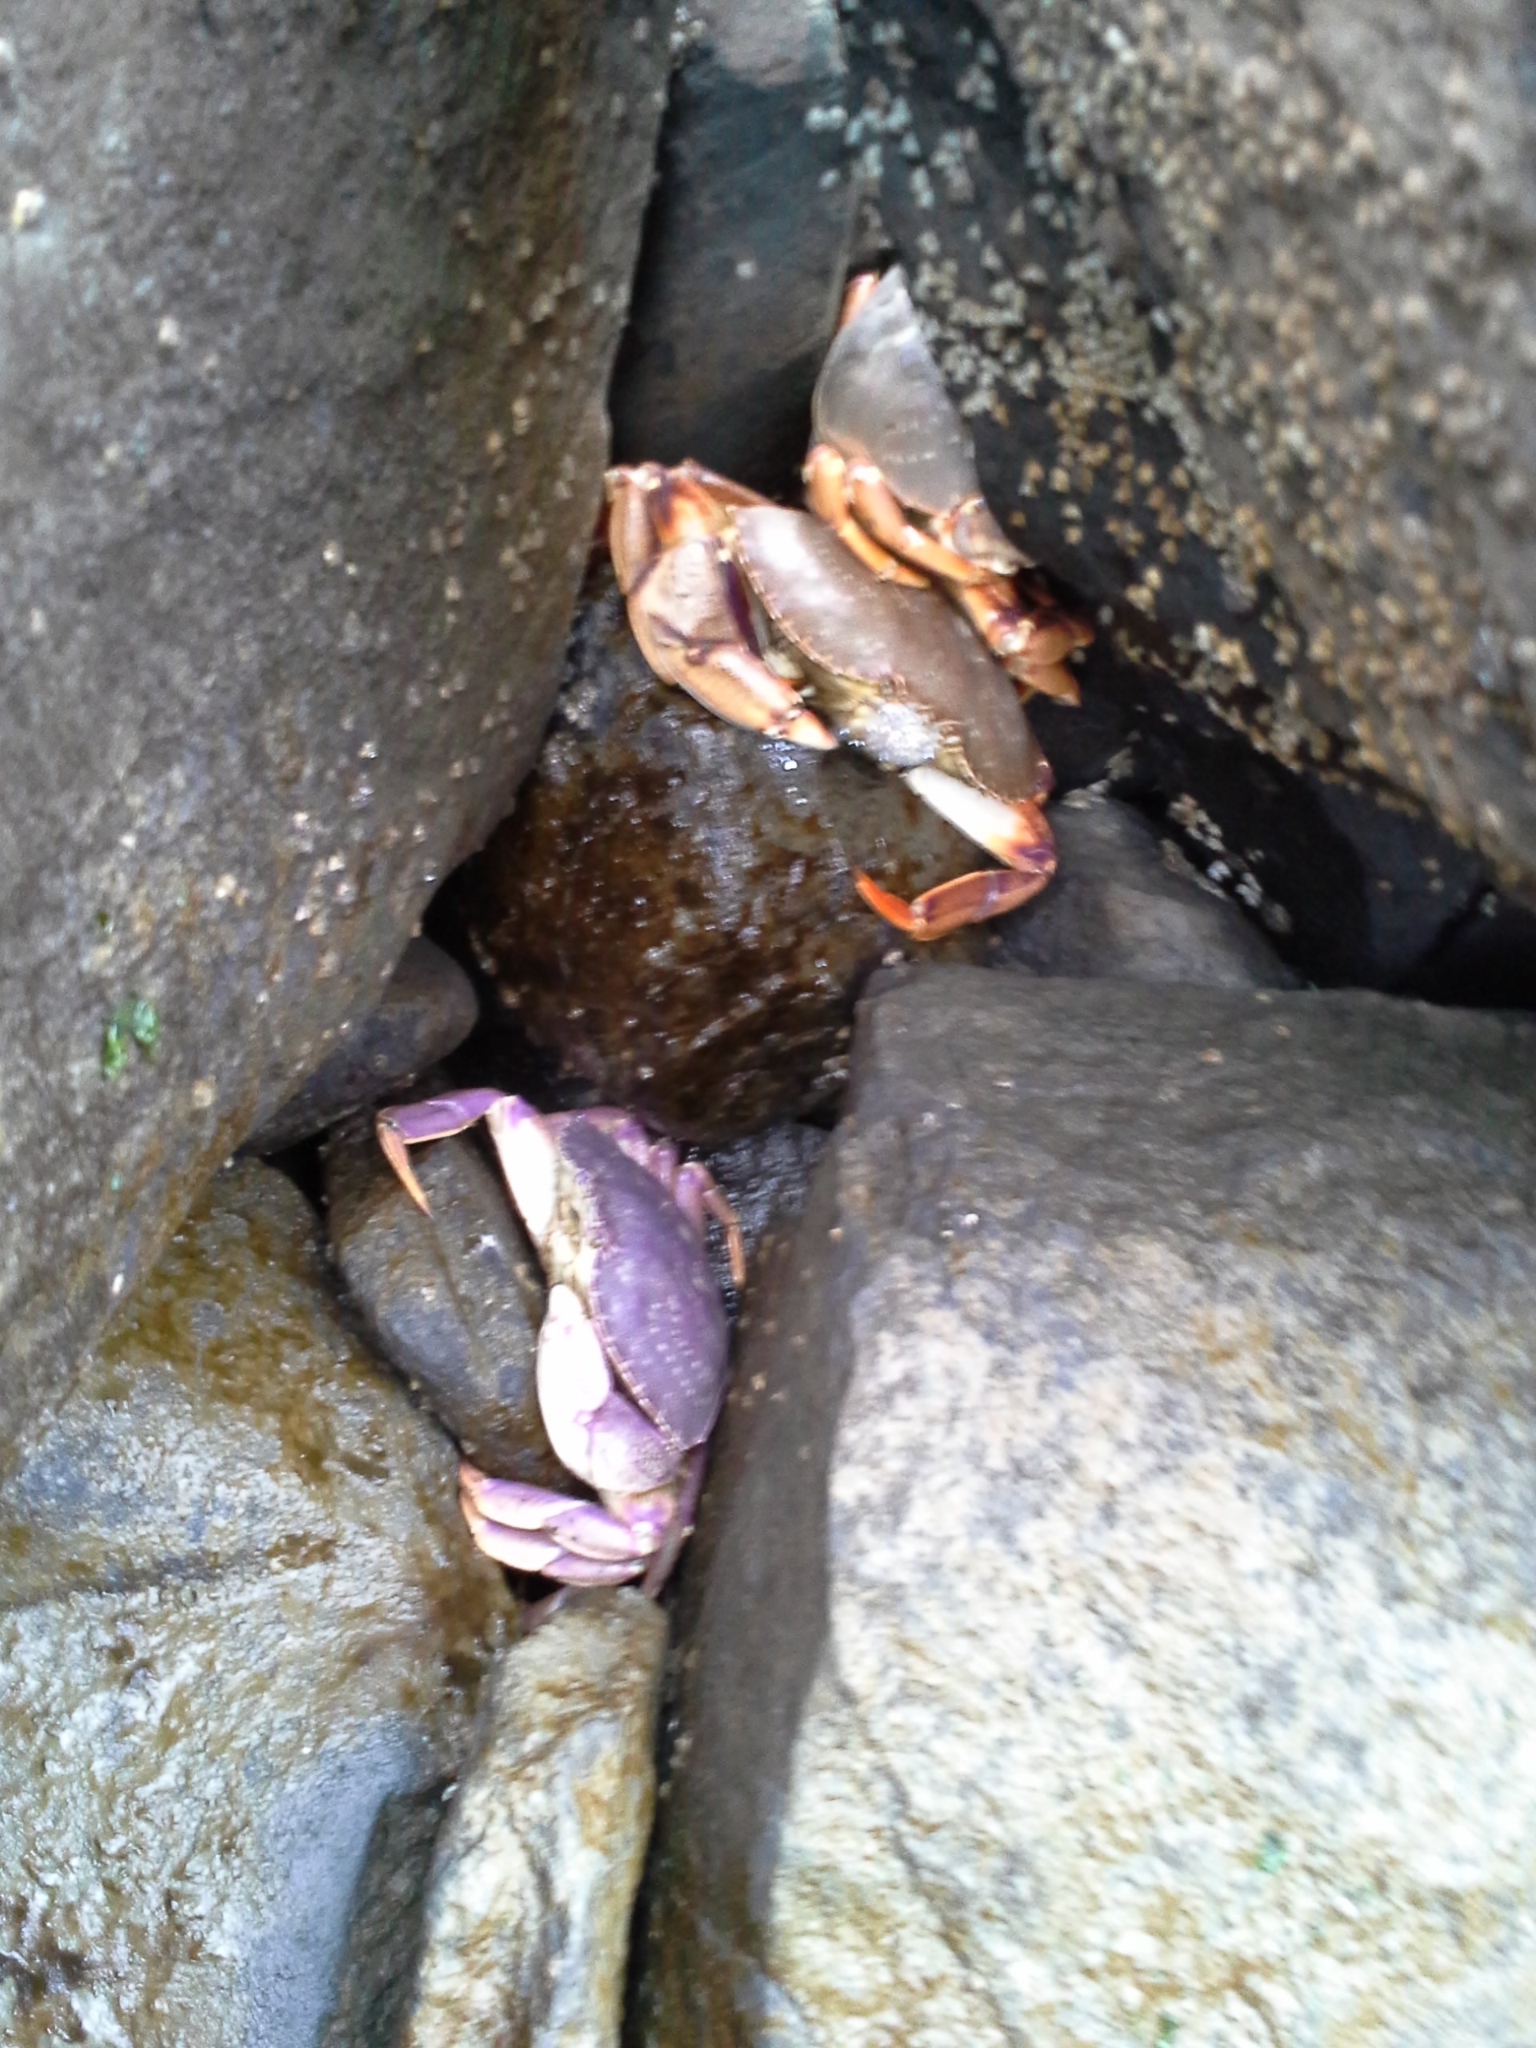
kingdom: Animalia
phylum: Arthropoda
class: Malacostraca
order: Decapoda
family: Cancridae
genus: Cancer
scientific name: Cancer irroratus
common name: Atlantic rock crab
